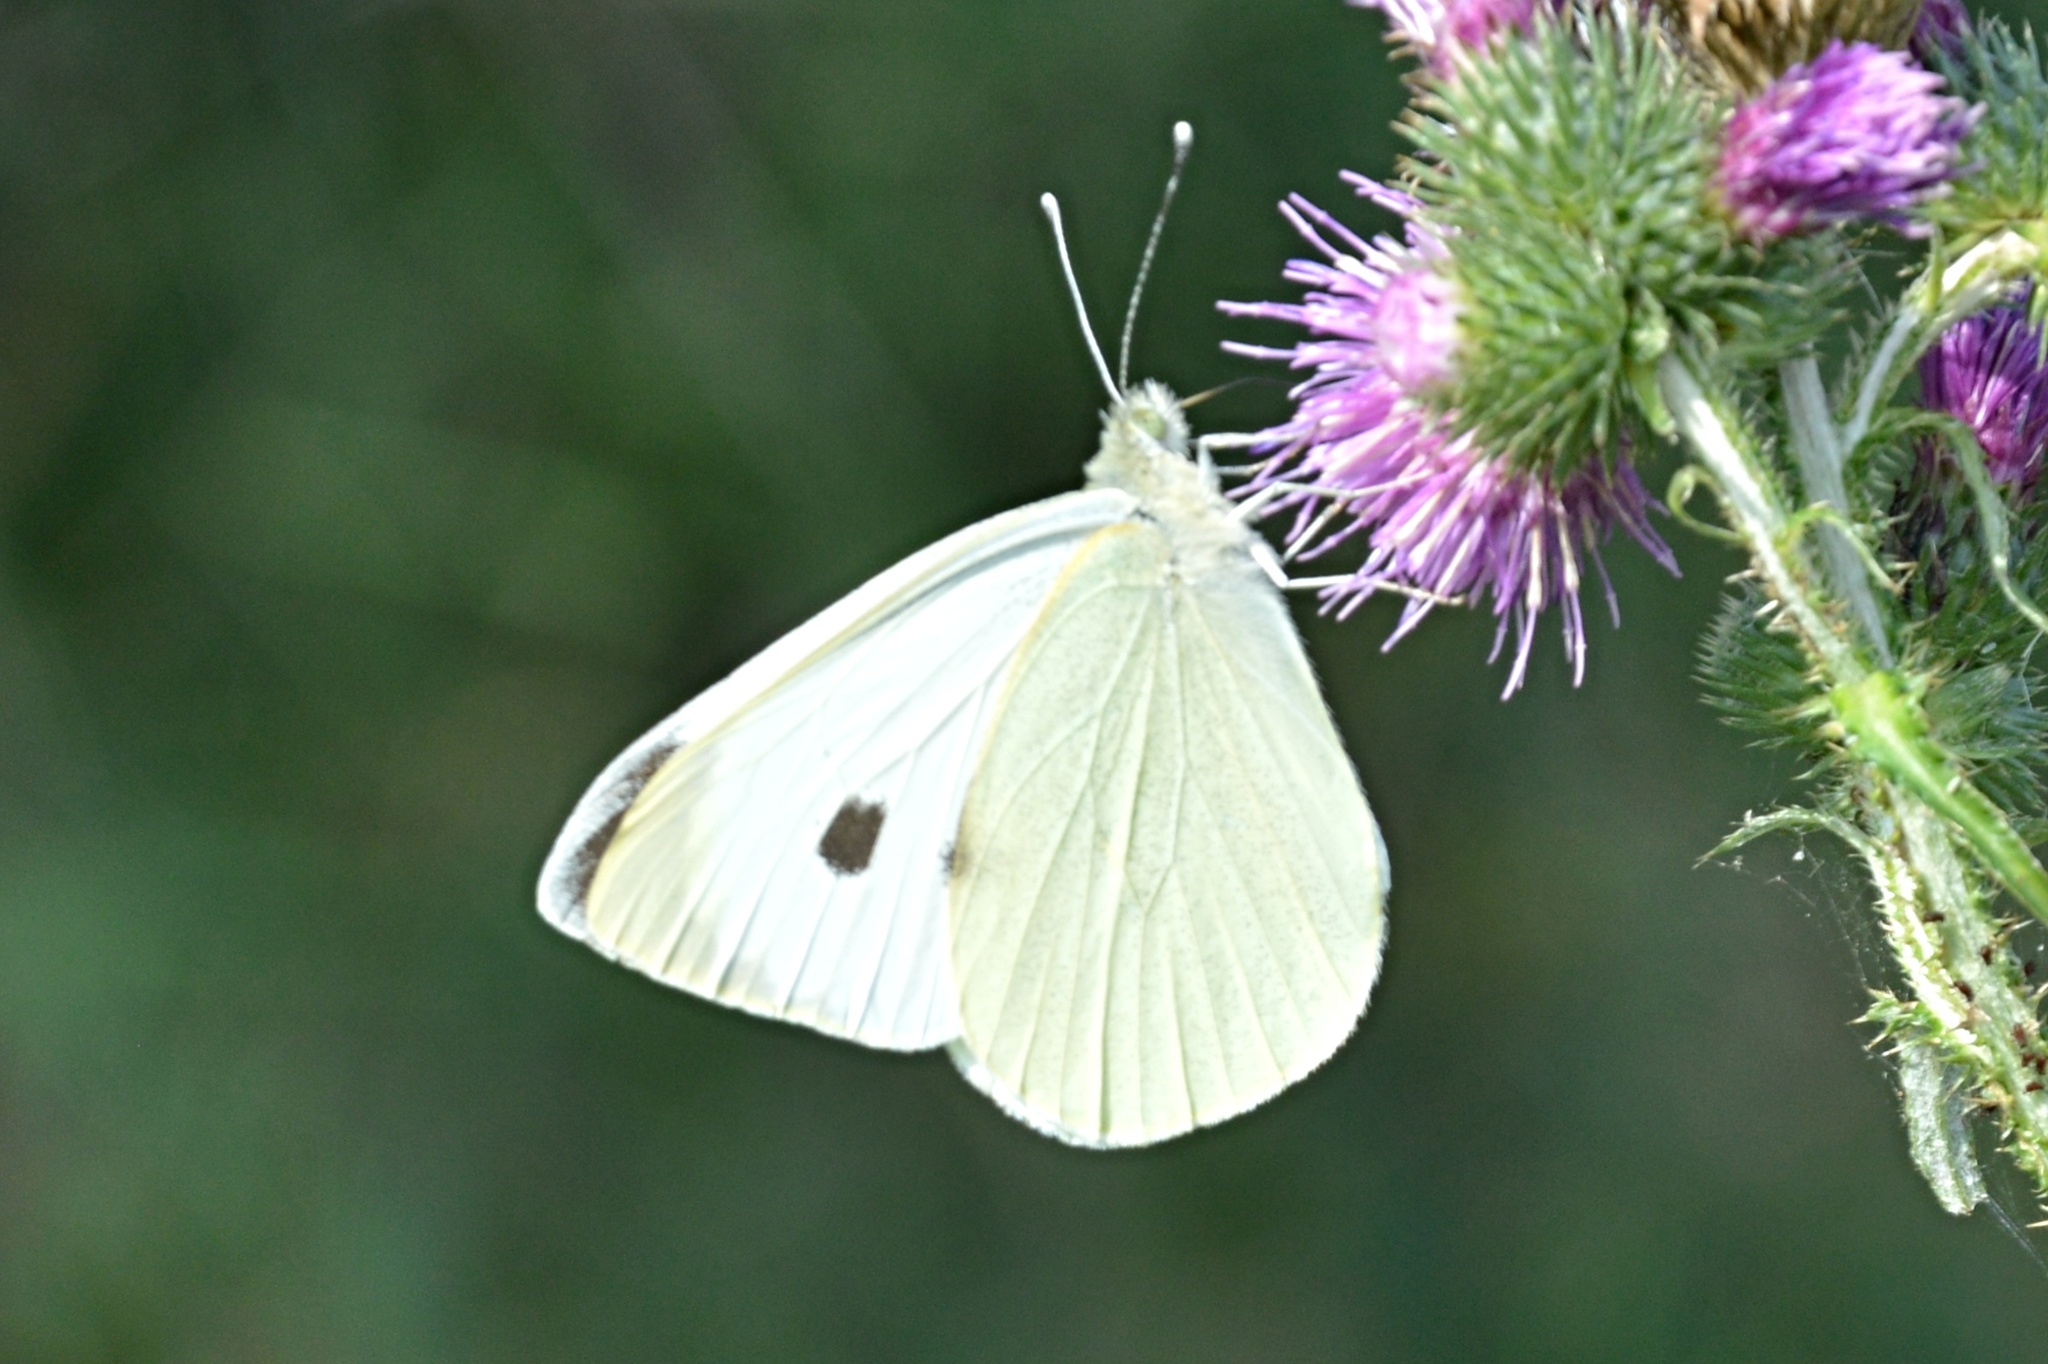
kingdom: Animalia
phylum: Arthropoda
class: Insecta
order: Lepidoptera
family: Pieridae
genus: Pieris
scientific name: Pieris brassicae
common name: Large white
